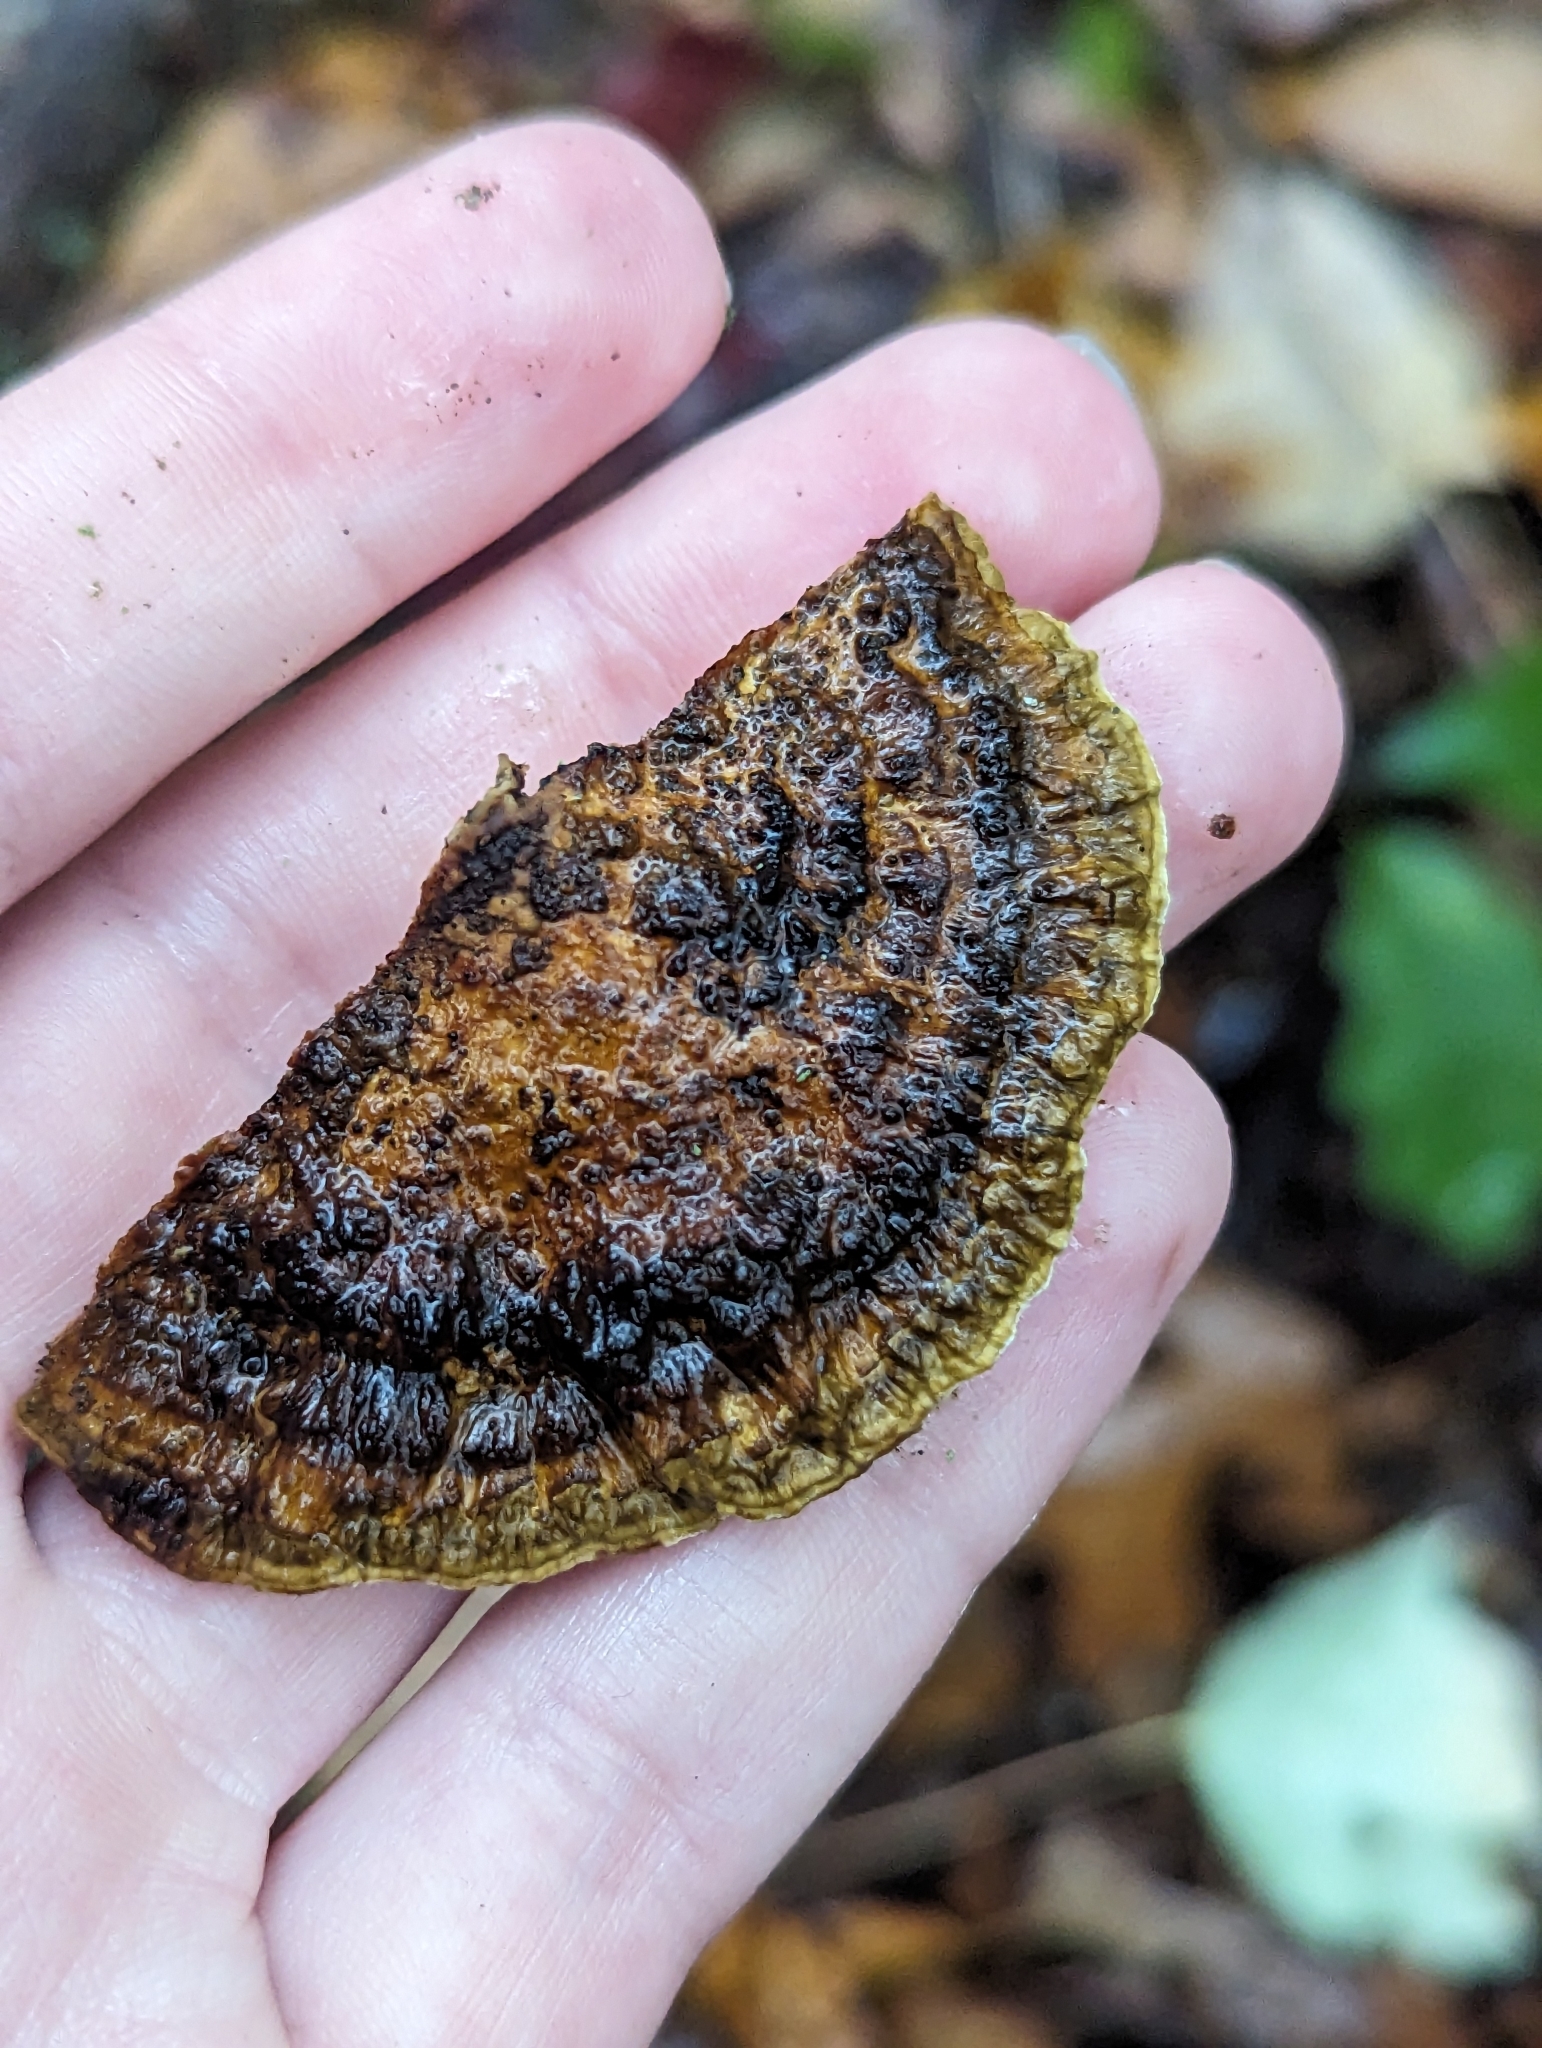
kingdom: Fungi
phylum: Basidiomycota
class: Agaricomycetes
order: Polyporales
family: Polyporaceae
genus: Daedaleopsis
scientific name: Daedaleopsis confragosa
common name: Blushing bracket
